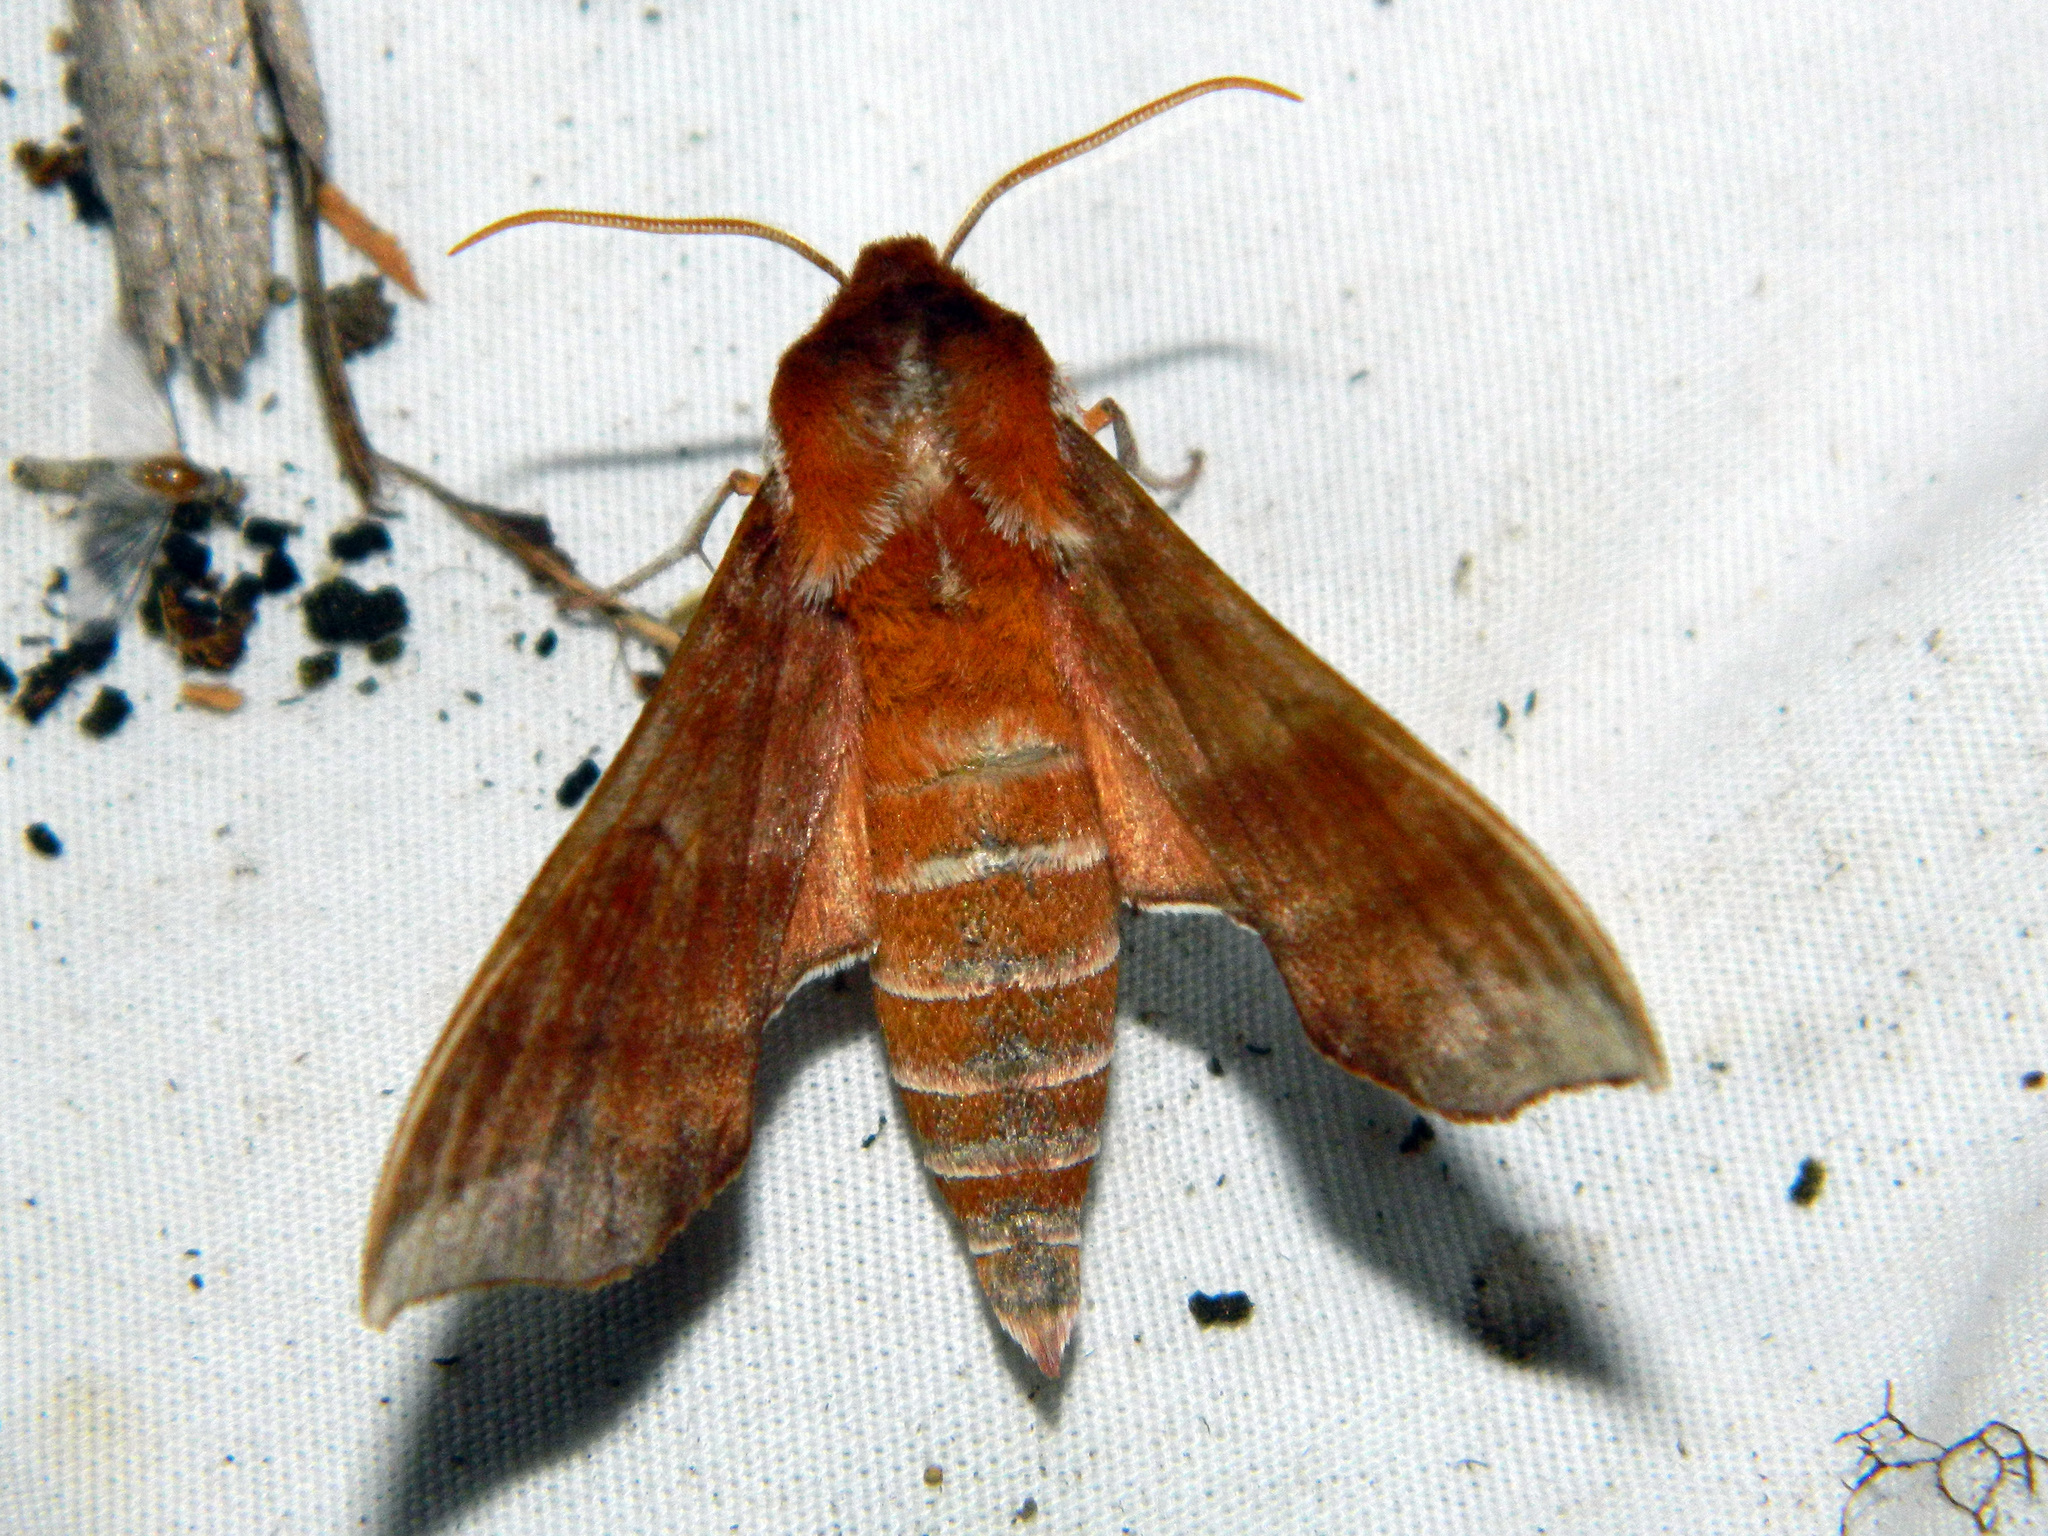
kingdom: Animalia
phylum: Arthropoda
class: Insecta
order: Lepidoptera
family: Sphingidae
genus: Darapsa
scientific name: Darapsa choerilus
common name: Azalea sphinx
